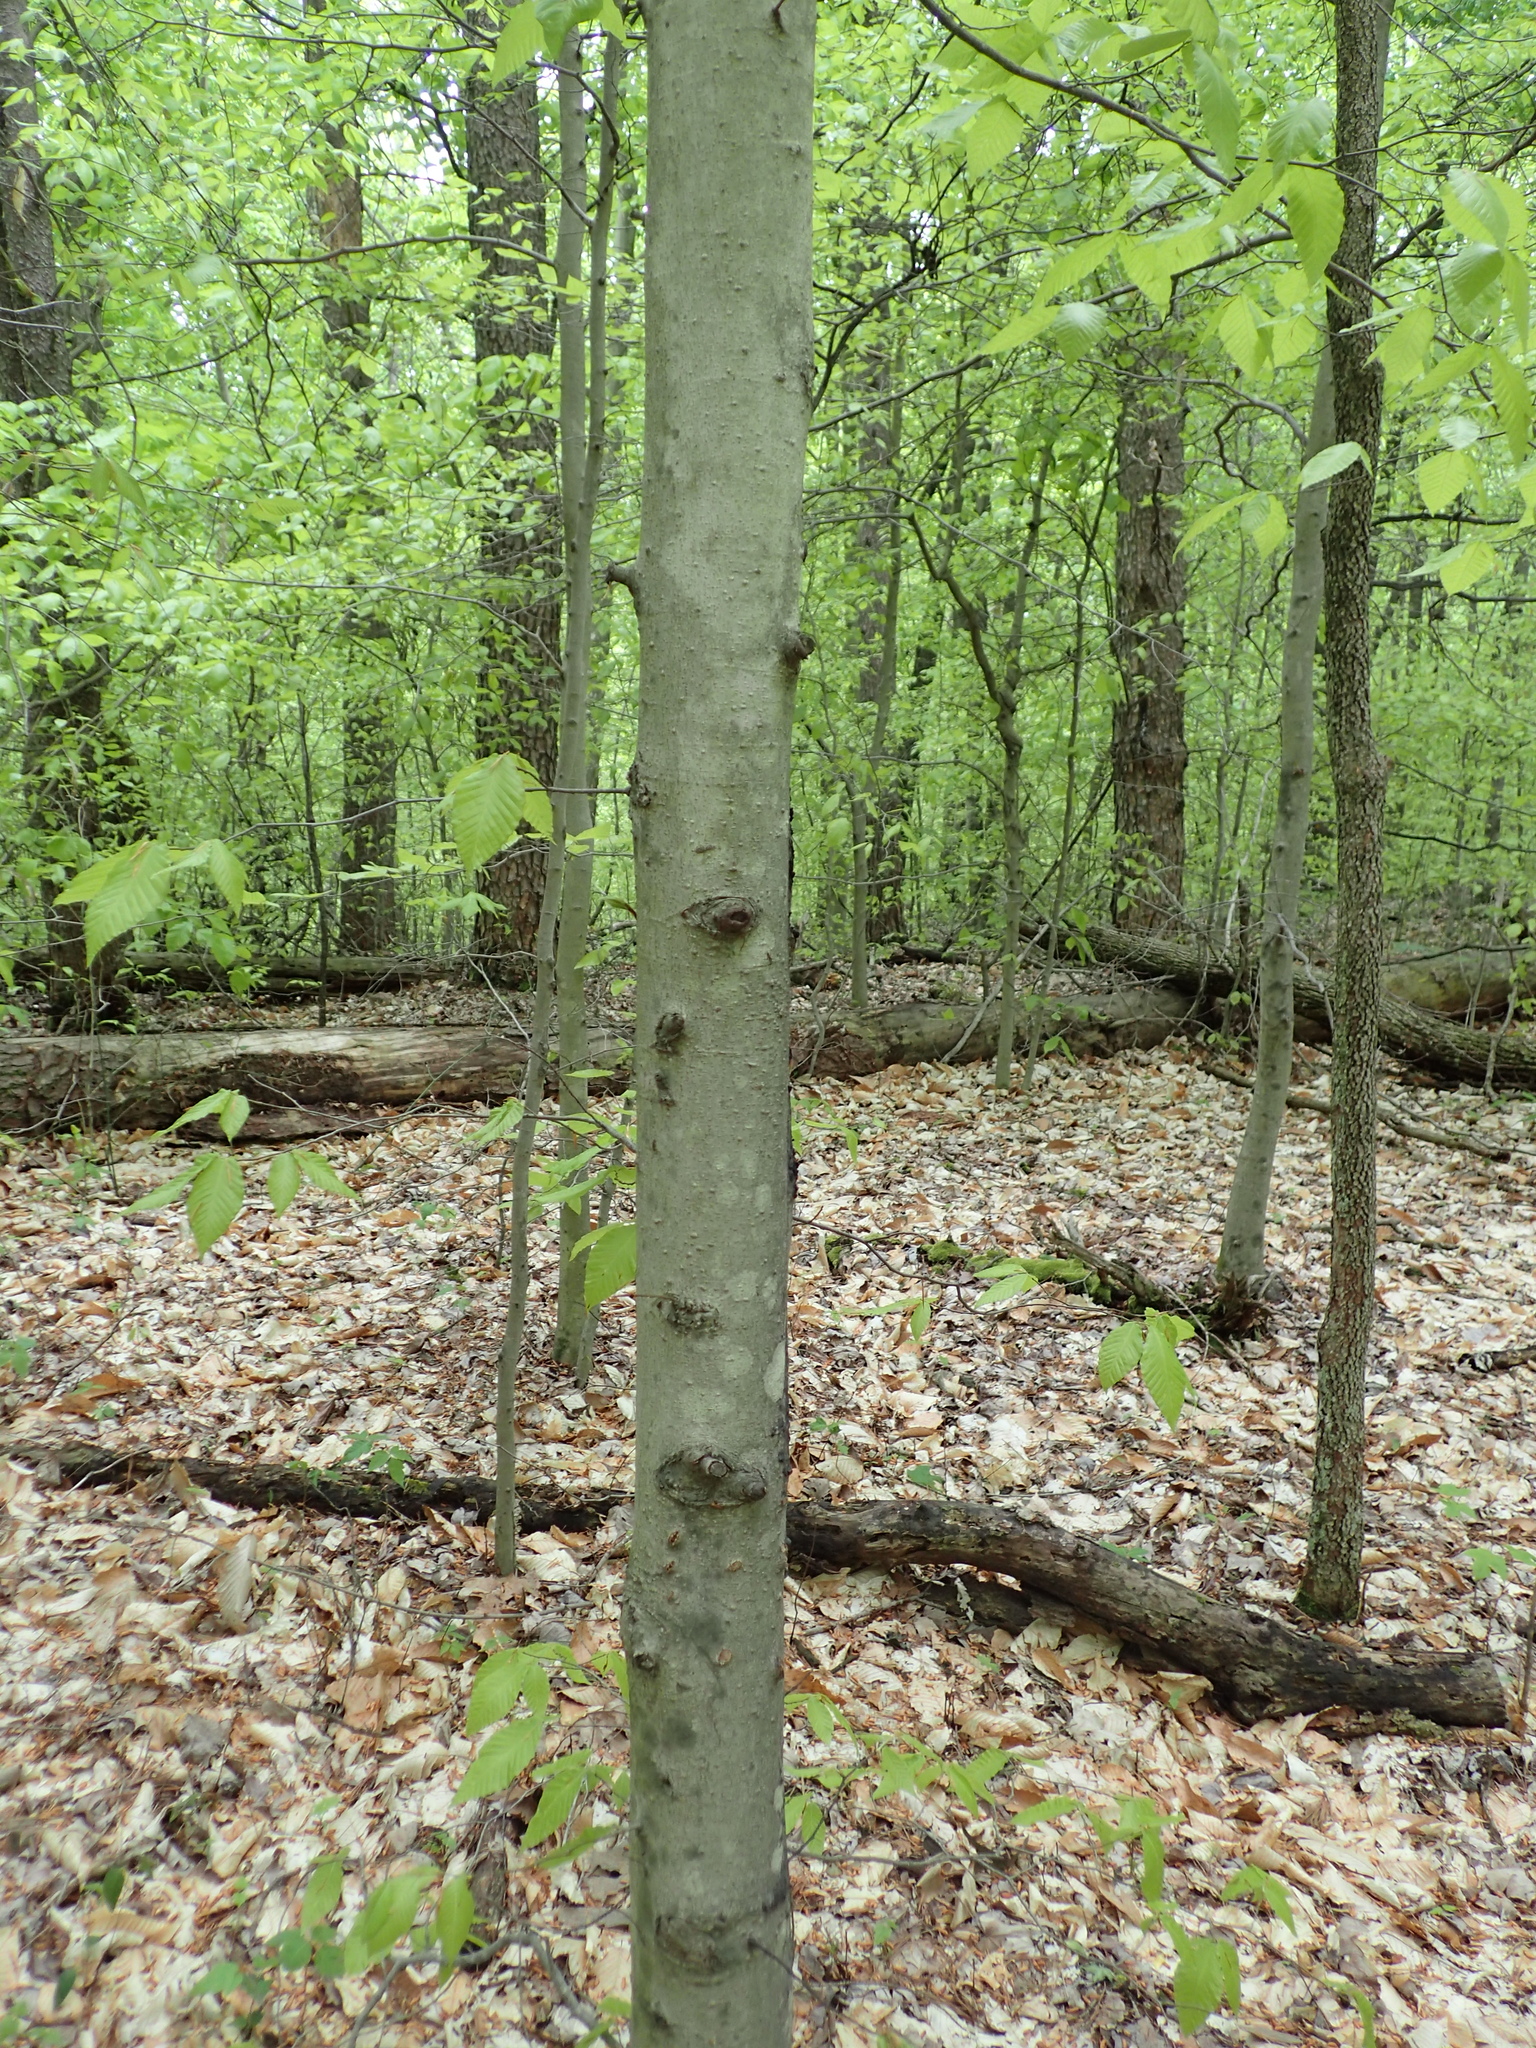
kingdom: Plantae
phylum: Tracheophyta
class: Magnoliopsida
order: Fagales
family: Fagaceae
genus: Fagus
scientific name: Fagus grandifolia
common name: American beech
